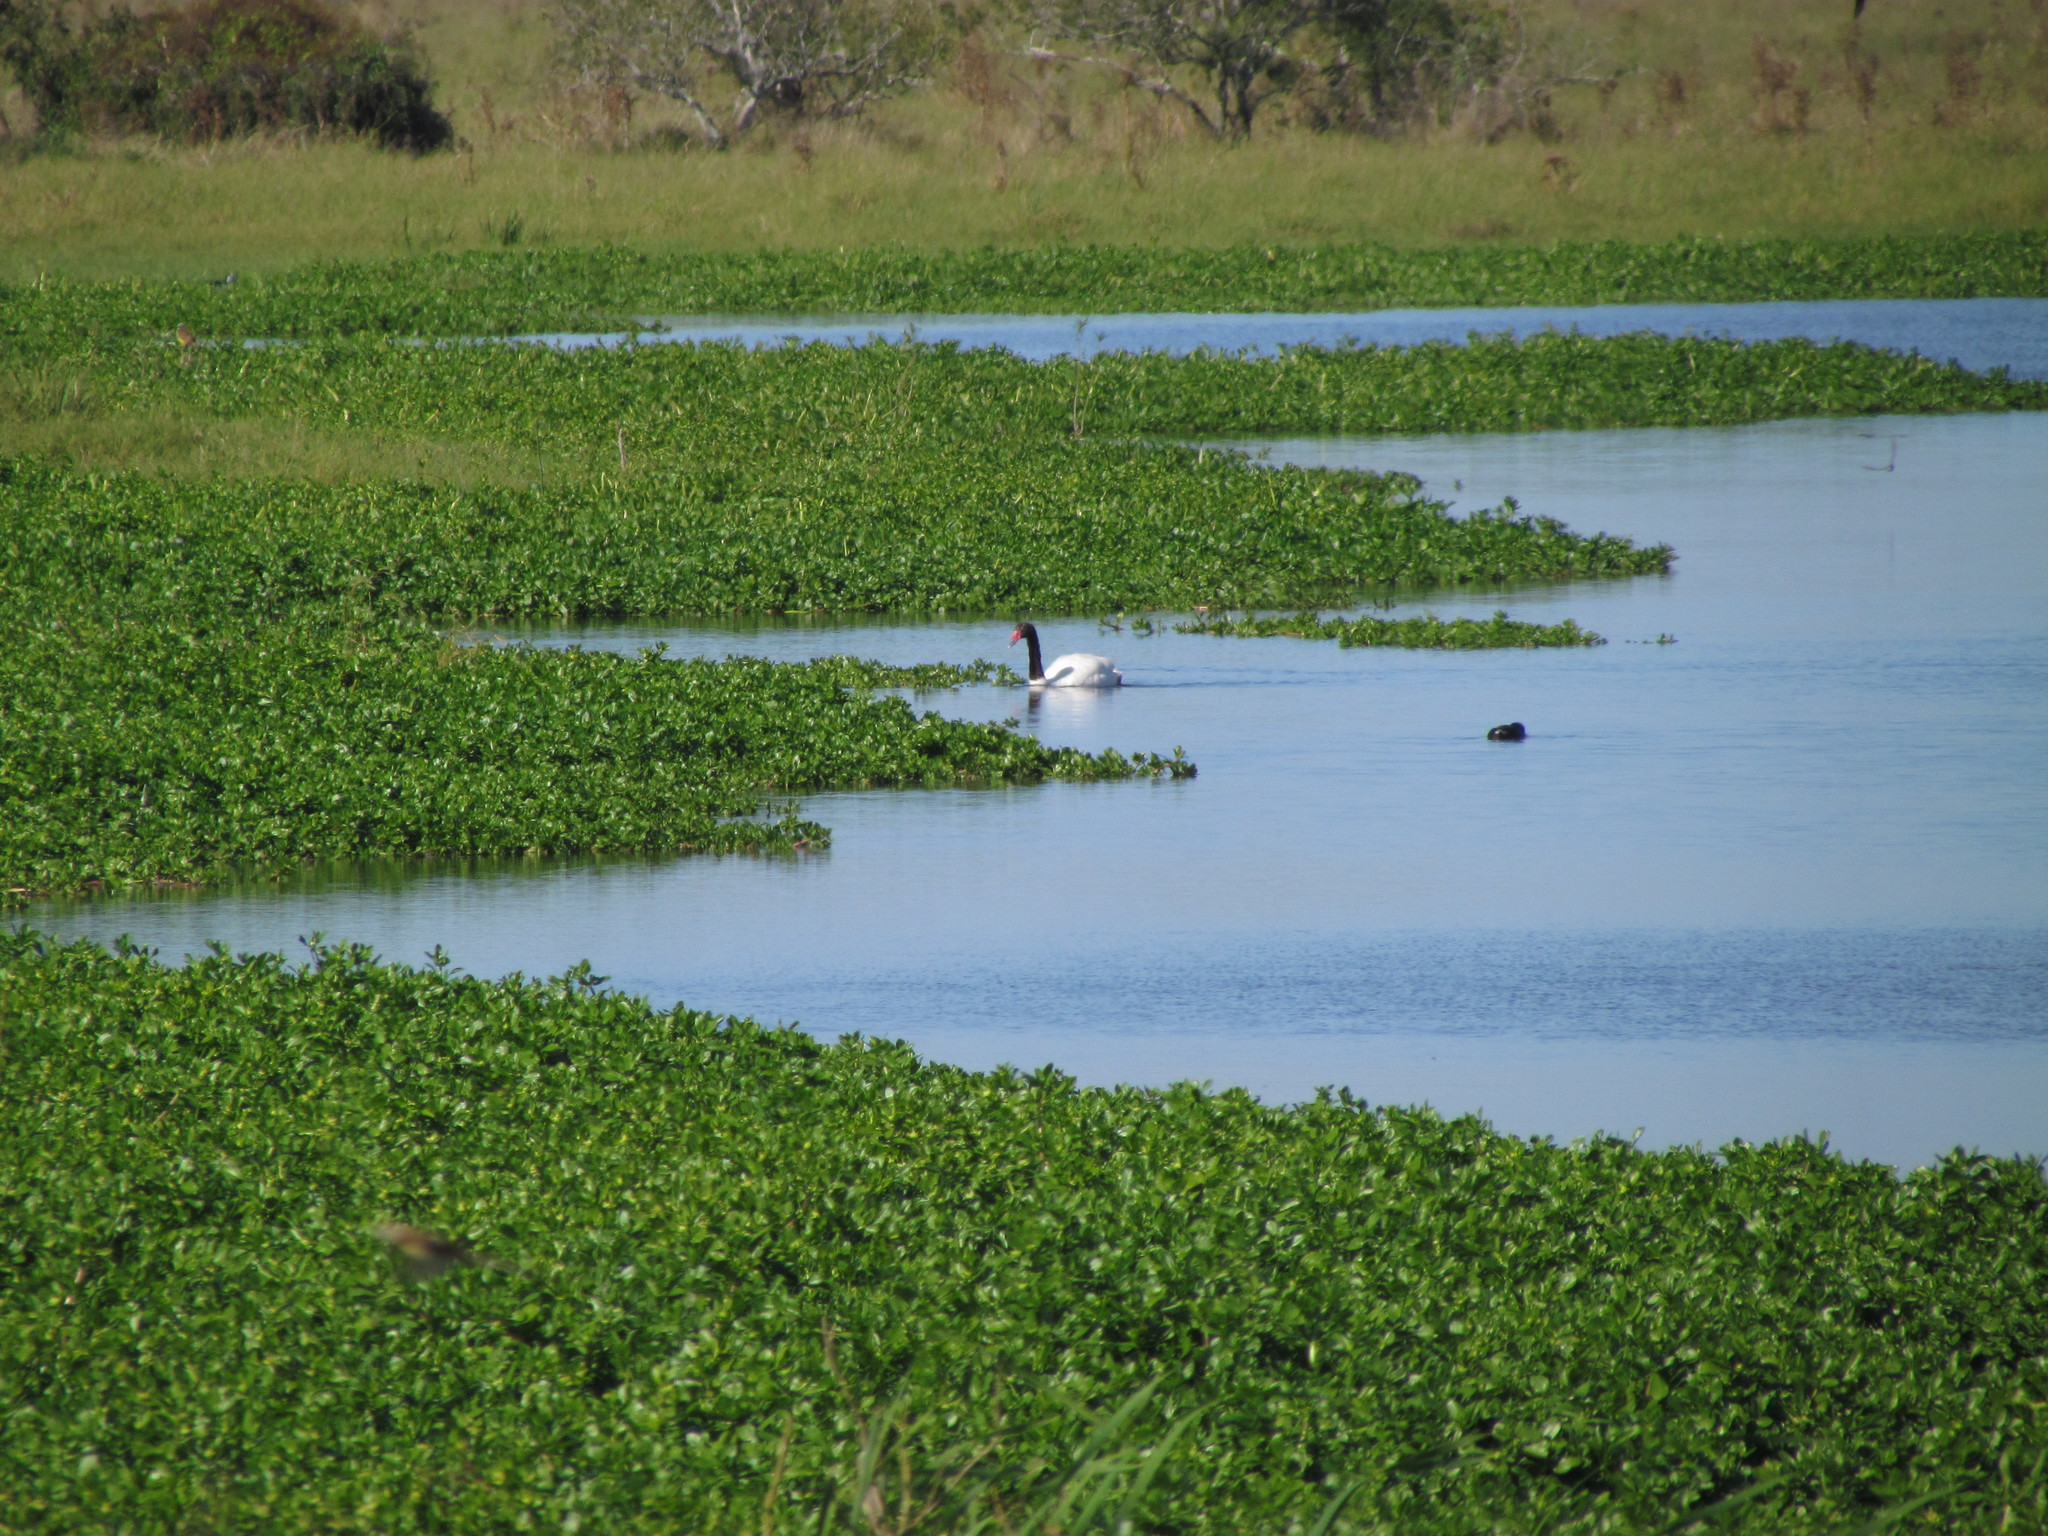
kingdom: Animalia
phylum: Chordata
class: Aves
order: Anseriformes
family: Anatidae
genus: Cygnus
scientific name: Cygnus melancoryphus
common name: Black-necked swan
